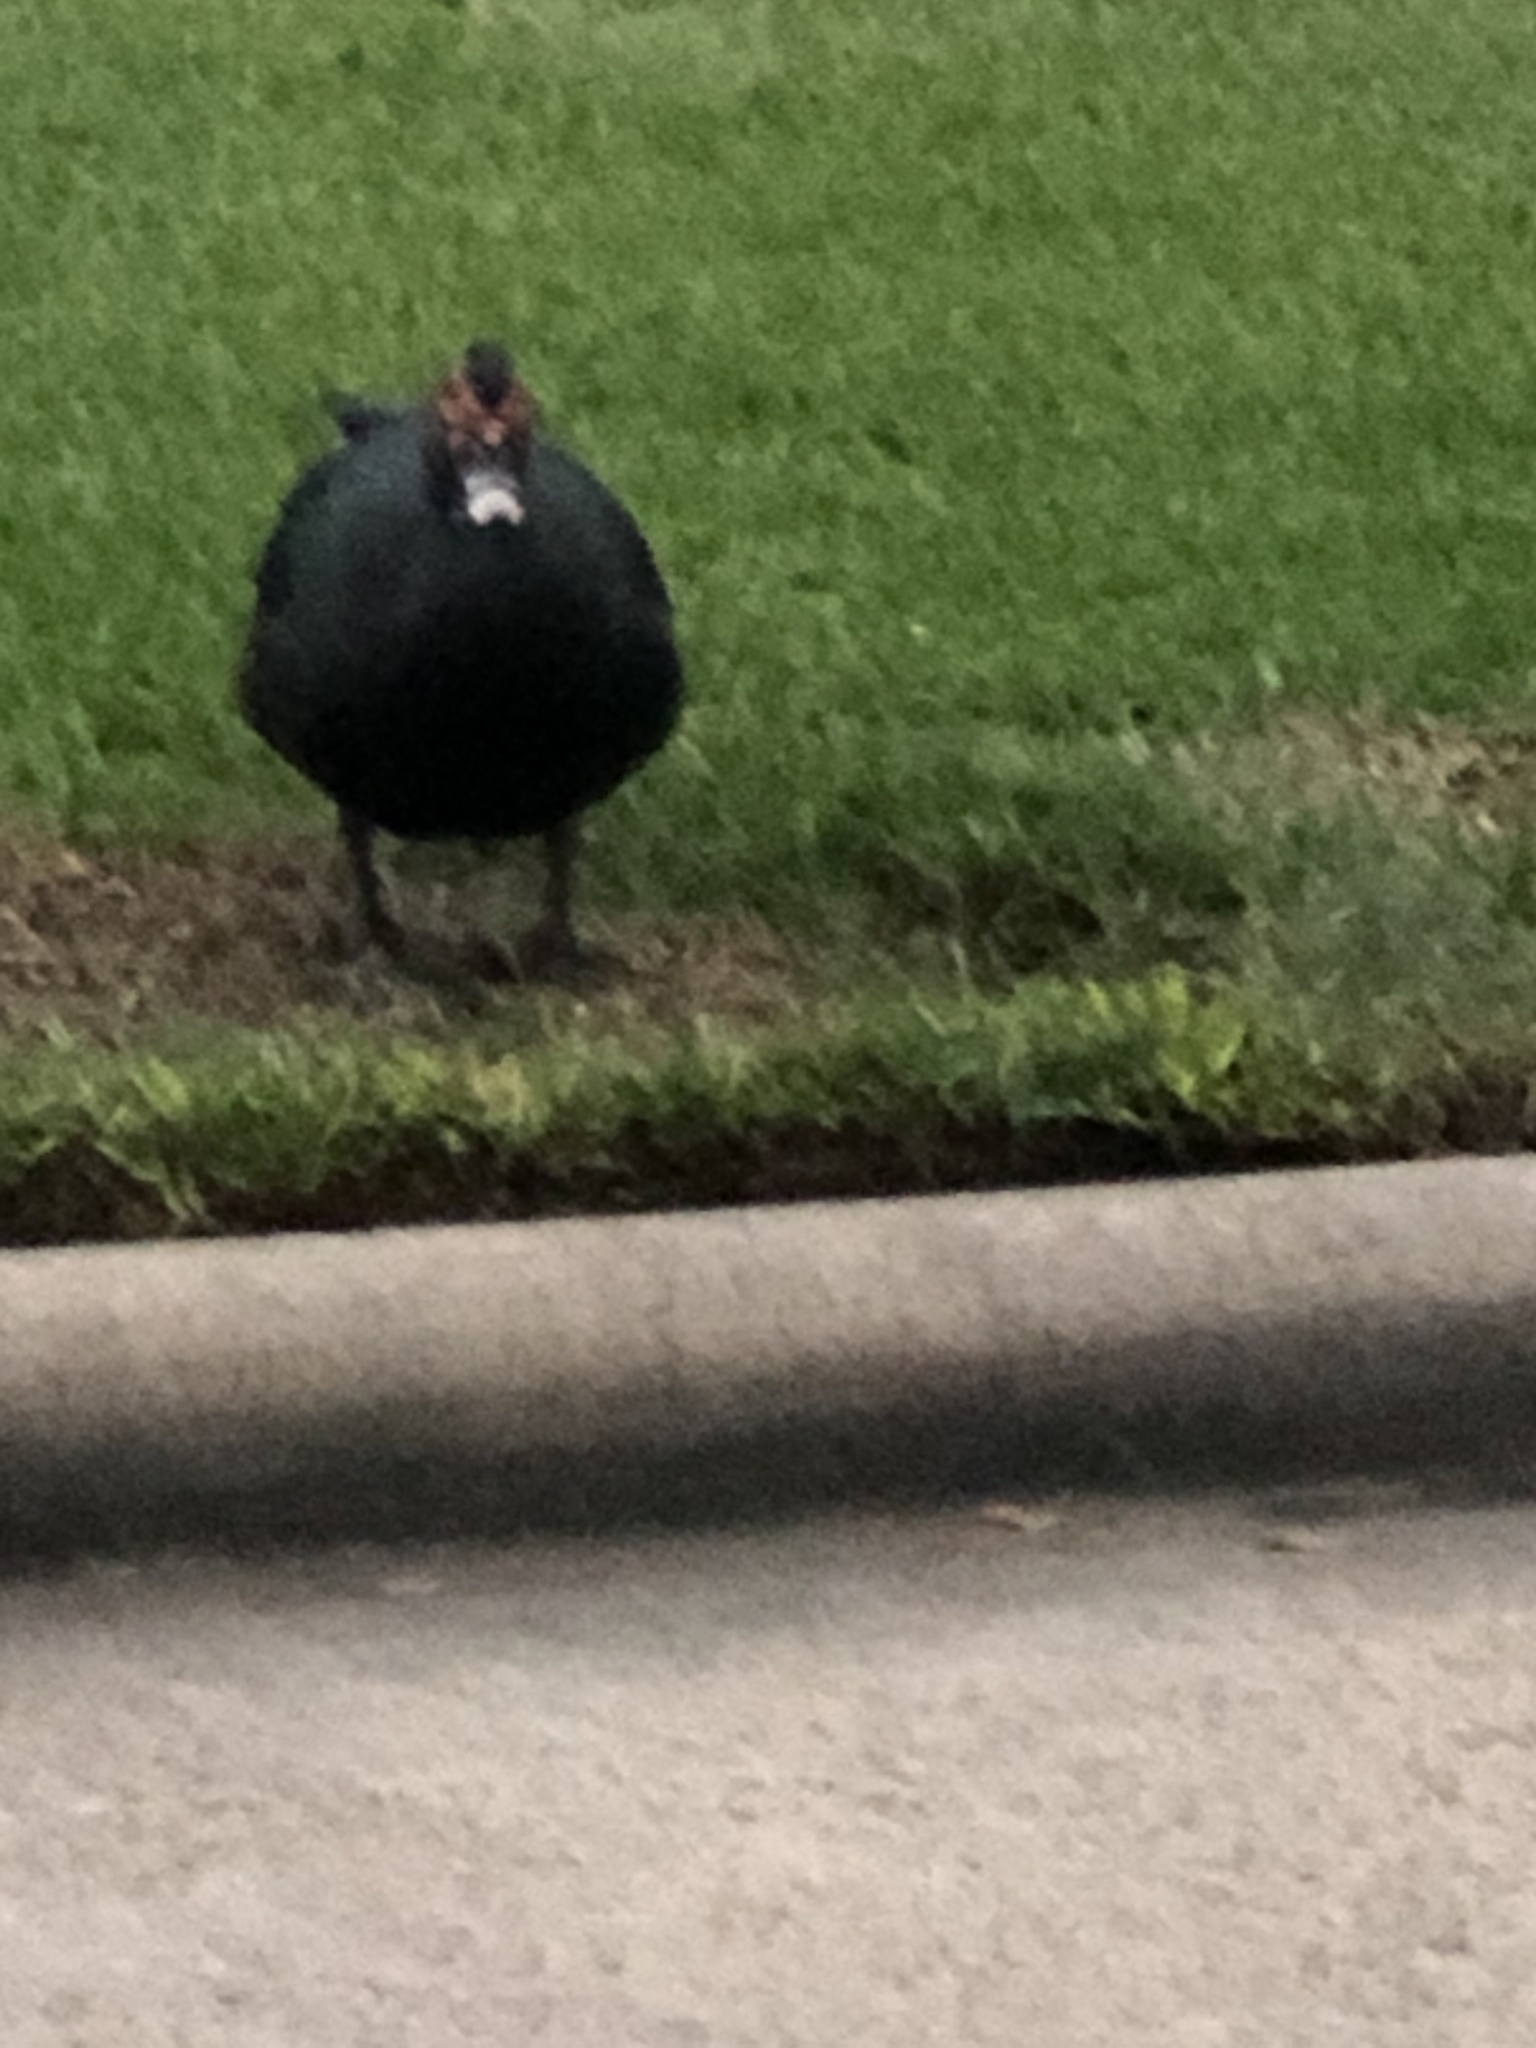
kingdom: Animalia
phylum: Chordata
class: Aves
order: Anseriformes
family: Anatidae
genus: Cairina
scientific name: Cairina moschata
